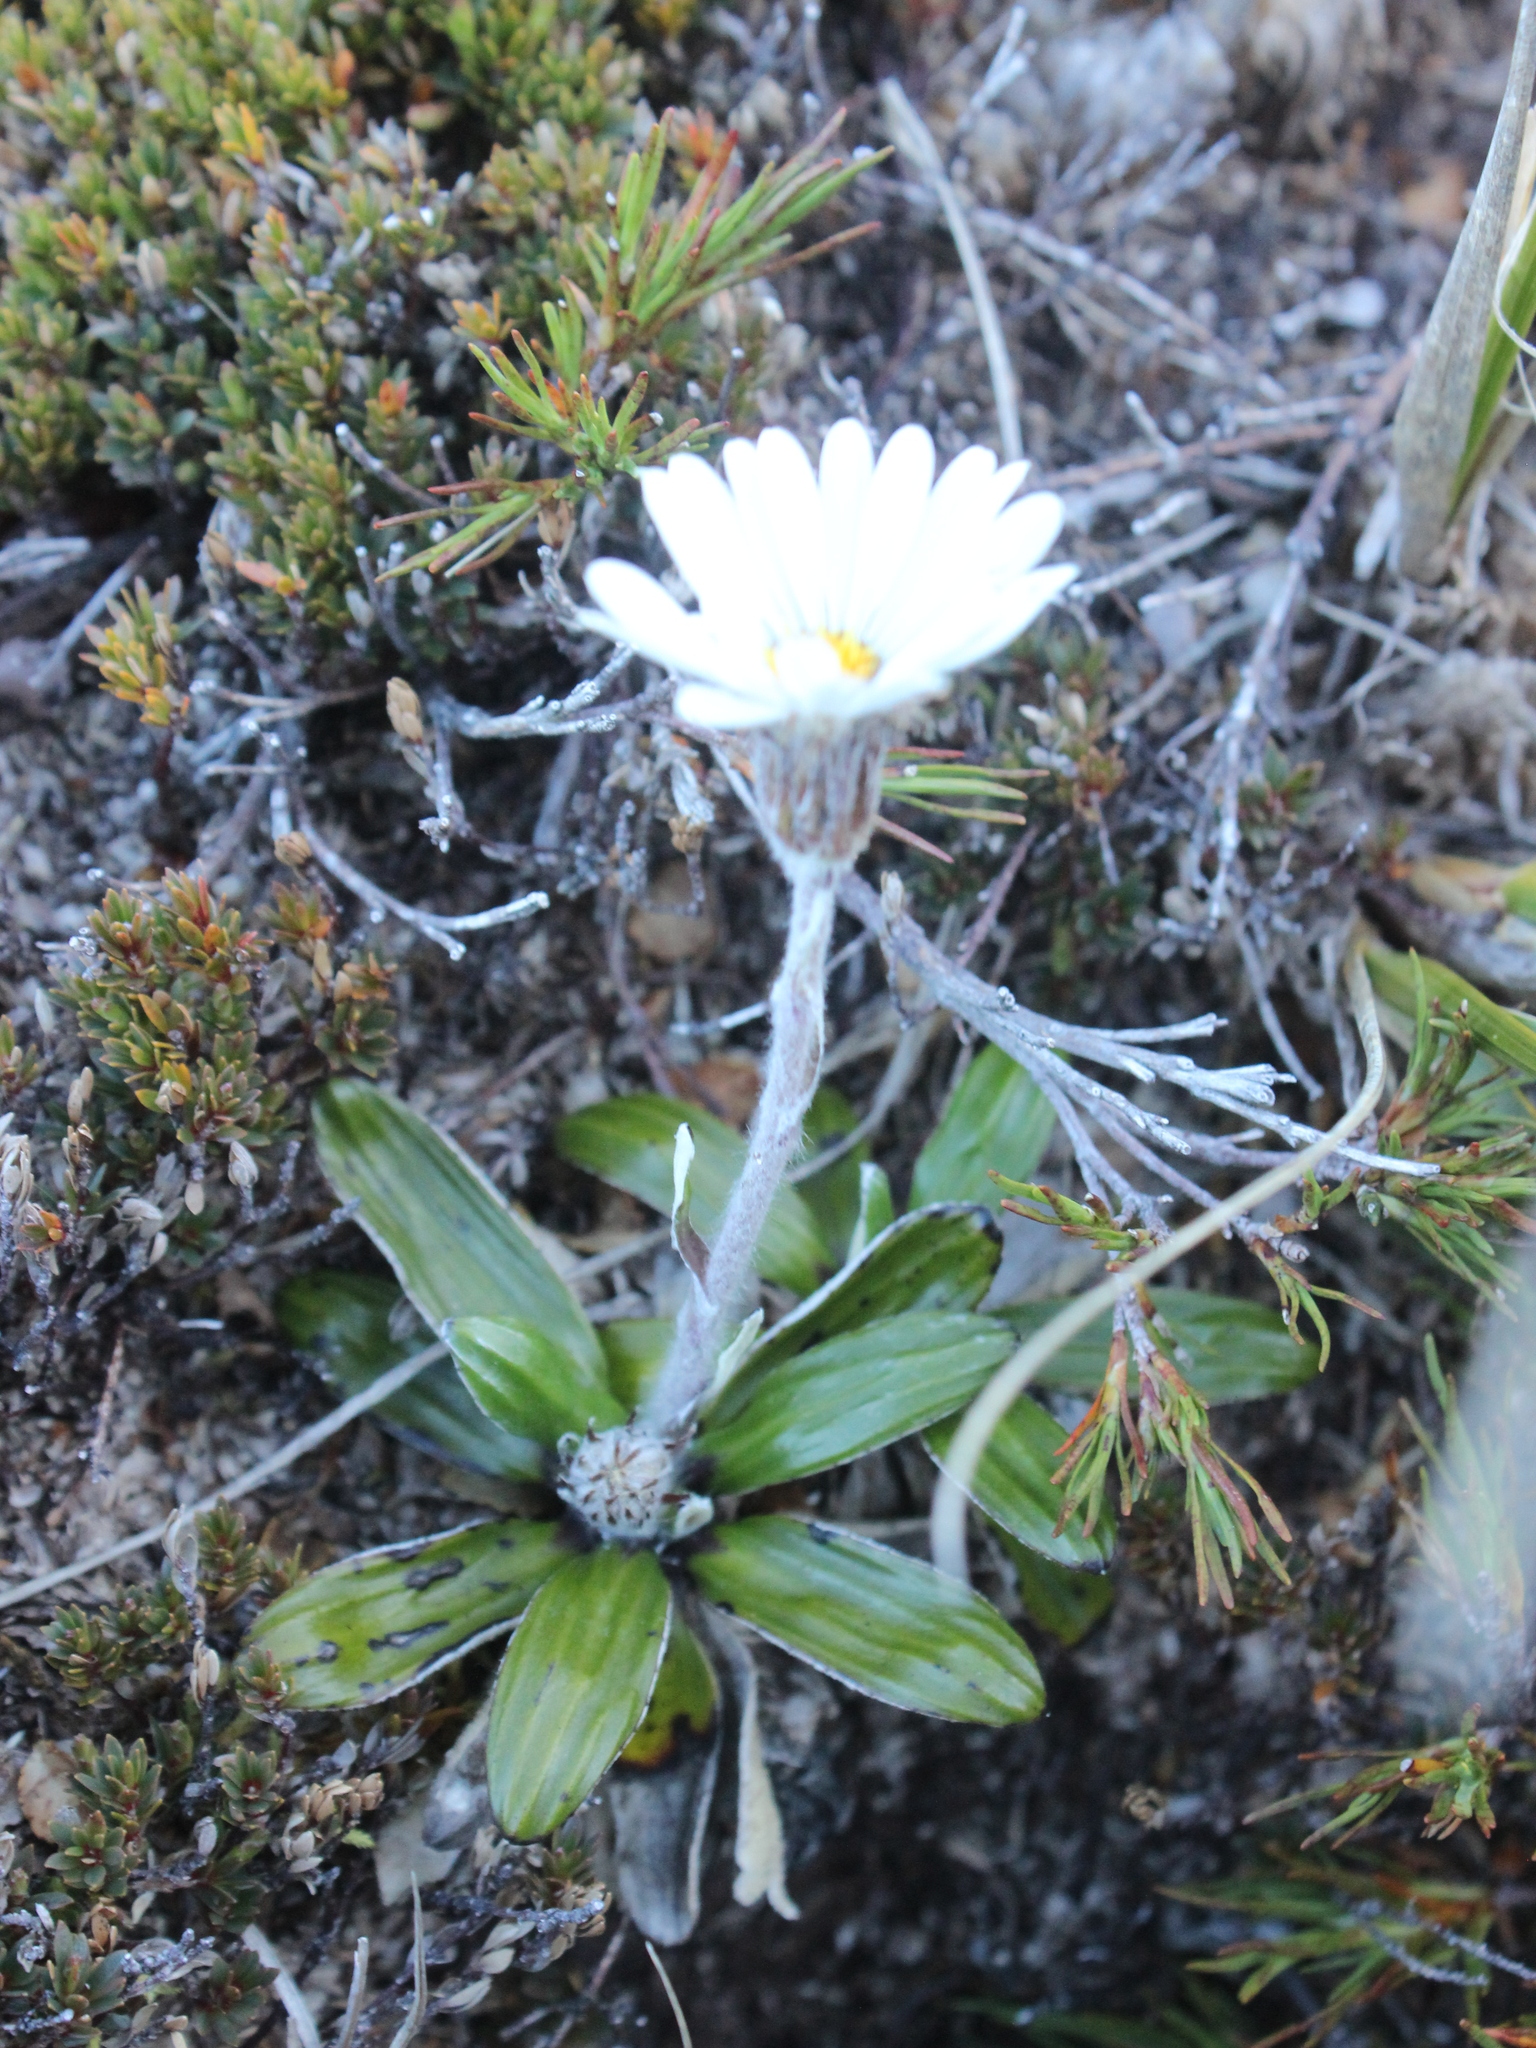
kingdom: Plantae
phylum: Tracheophyta
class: Magnoliopsida
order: Asterales
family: Asteraceae
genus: Celmisia
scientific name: Celmisia spectabilis
